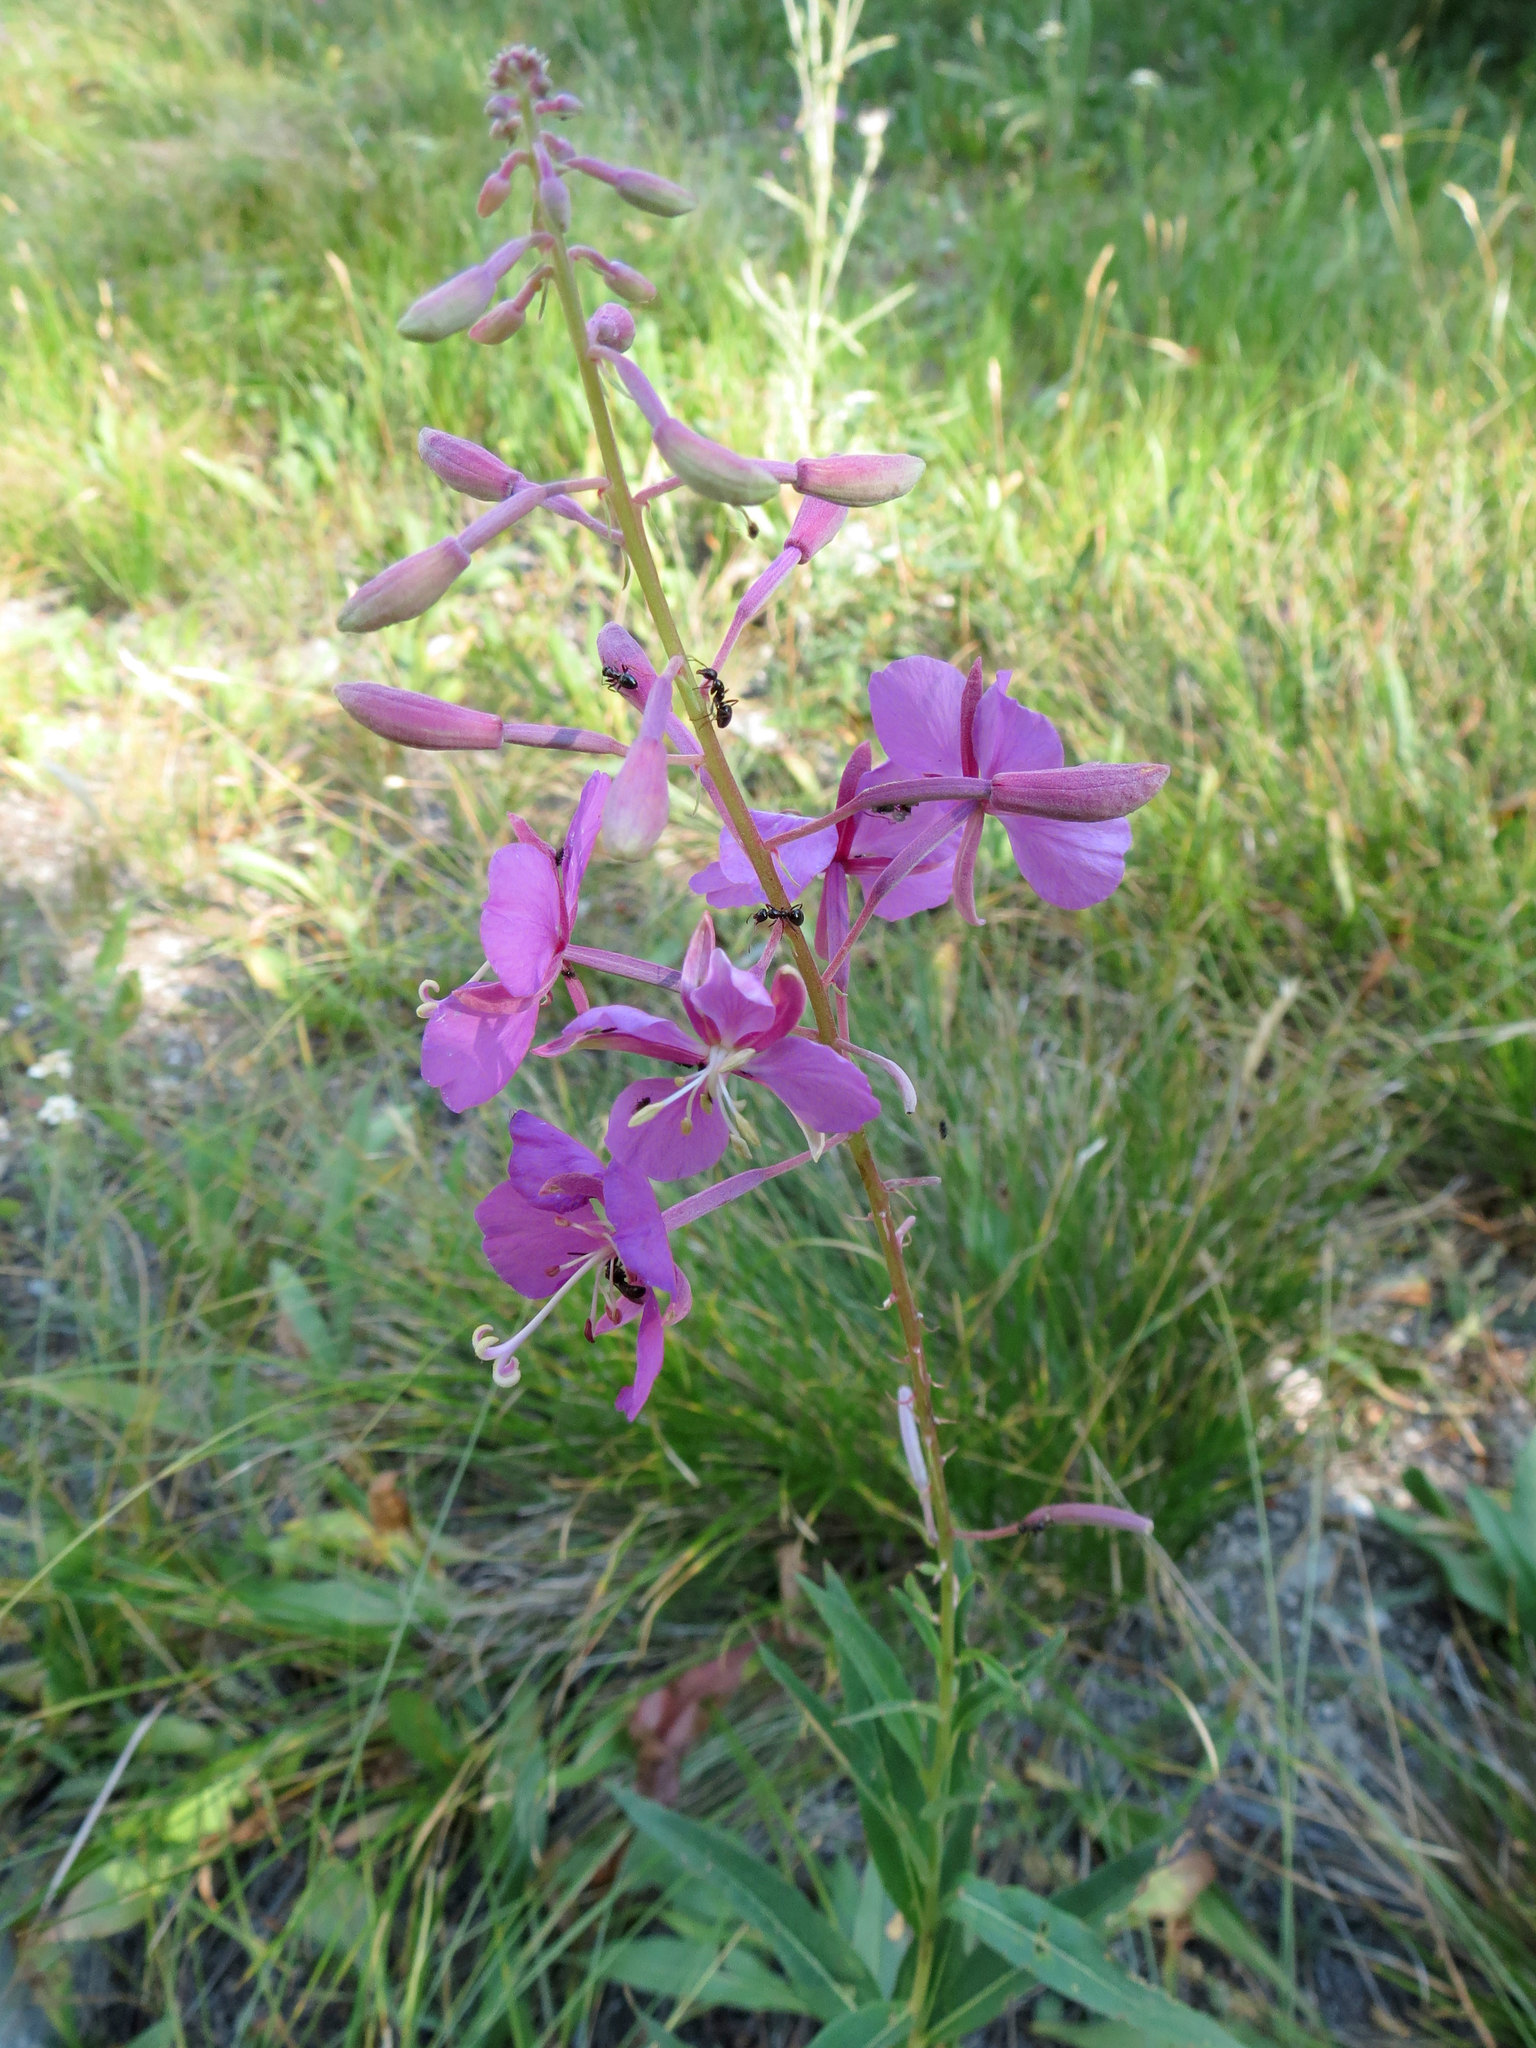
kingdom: Plantae
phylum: Tracheophyta
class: Magnoliopsida
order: Myrtales
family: Onagraceae
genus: Chamaenerion
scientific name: Chamaenerion angustifolium
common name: Fireweed
